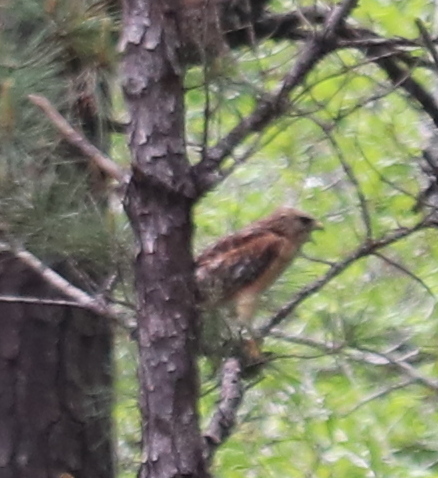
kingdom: Animalia
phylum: Chordata
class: Aves
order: Accipitriformes
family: Accipitridae
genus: Buteo
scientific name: Buteo lineatus
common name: Red-shouldered hawk
